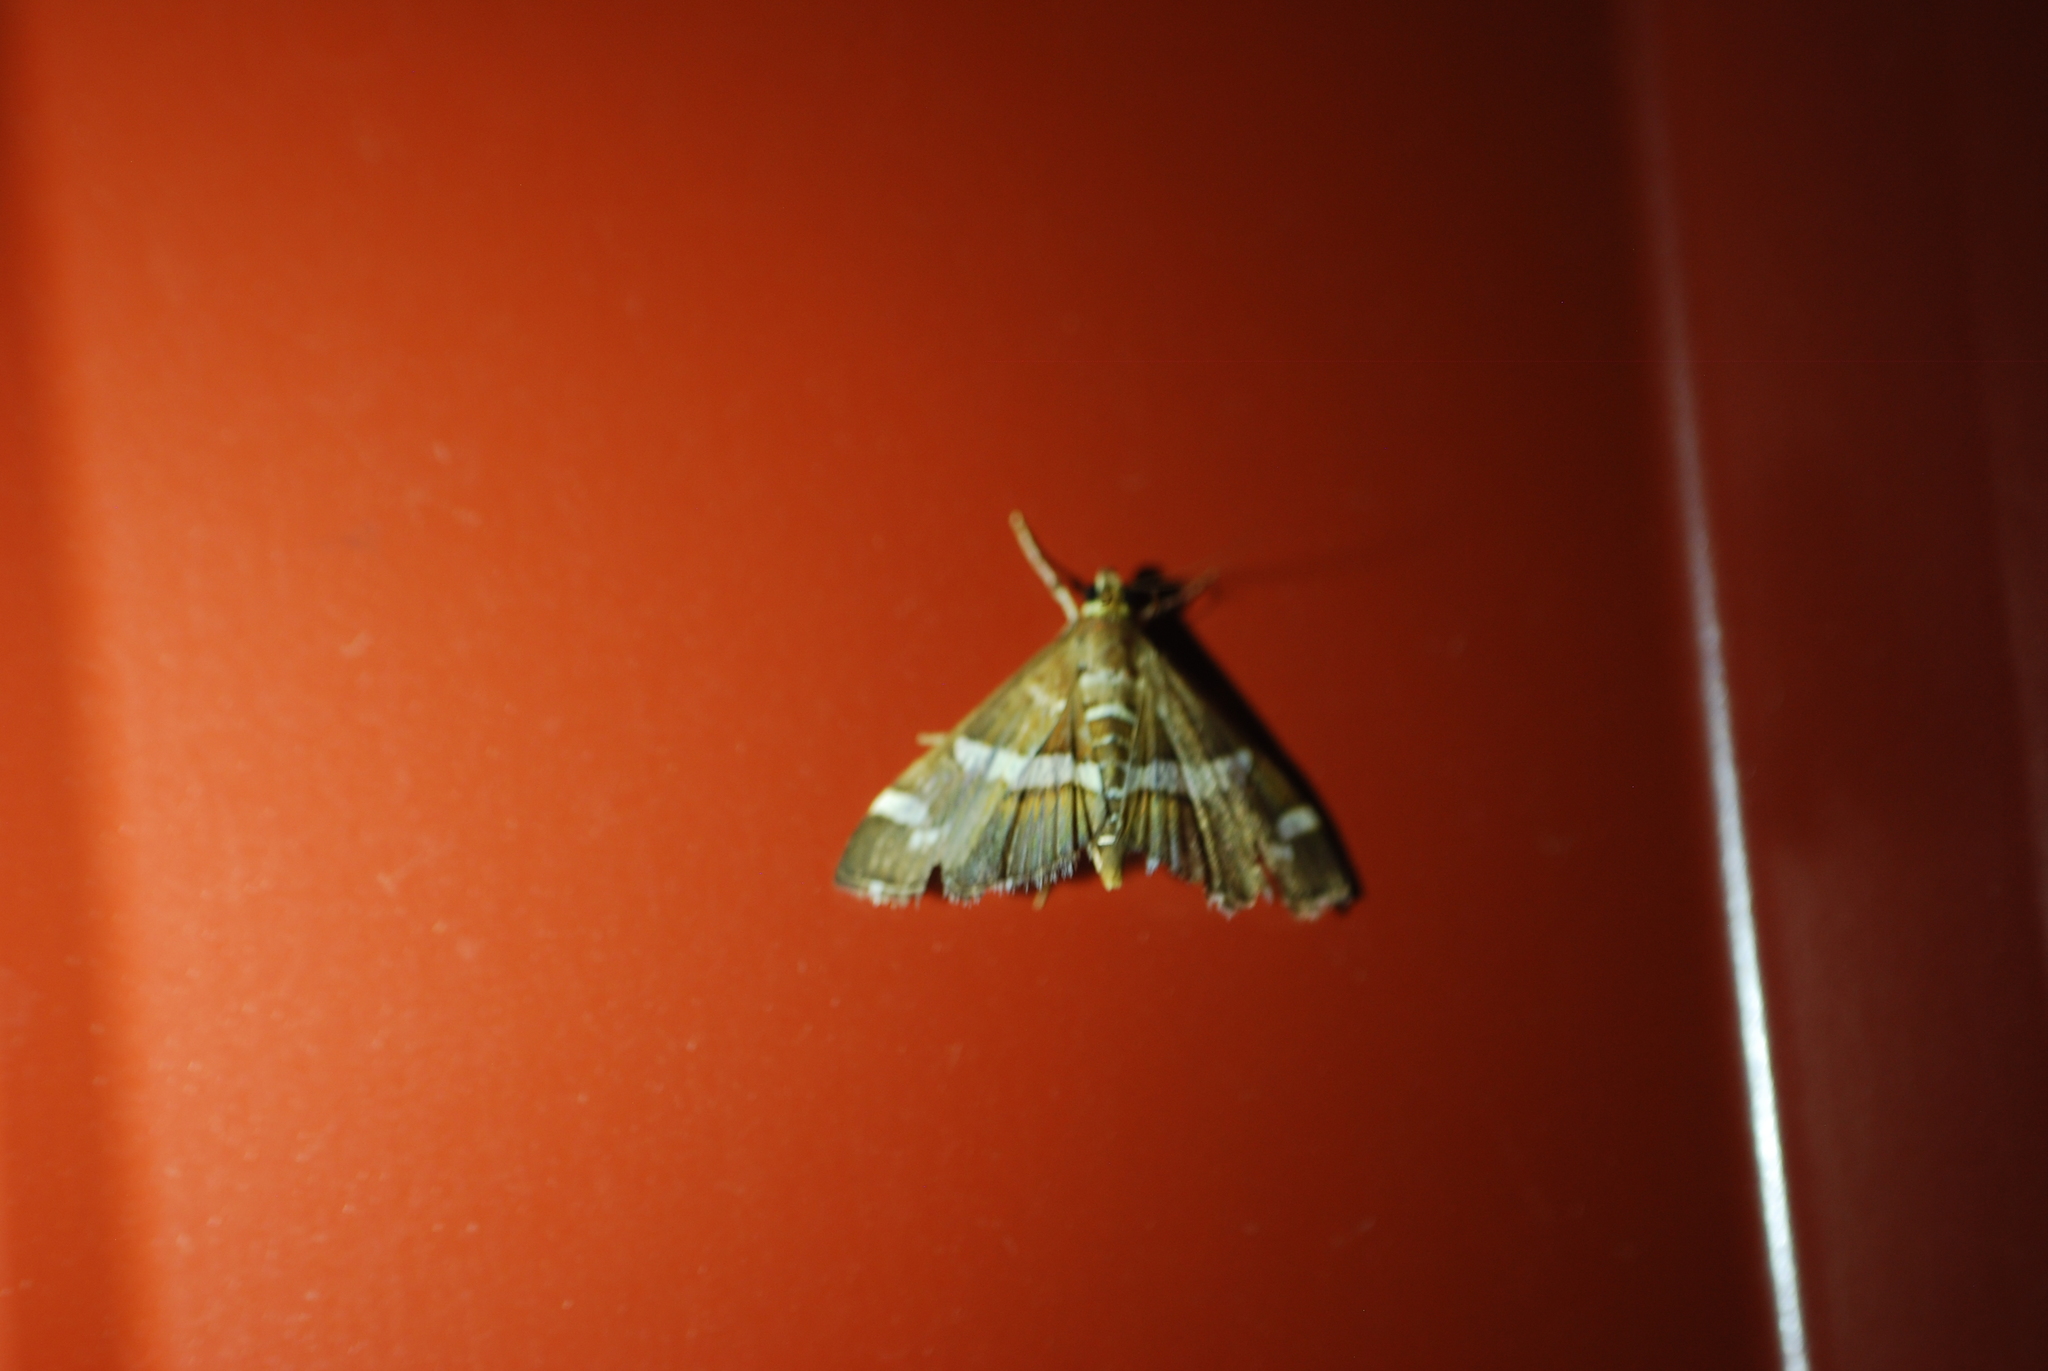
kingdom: Animalia
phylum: Arthropoda
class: Insecta
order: Lepidoptera
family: Crambidae
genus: Spoladea
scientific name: Spoladea recurvalis
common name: Beet webworm moth
